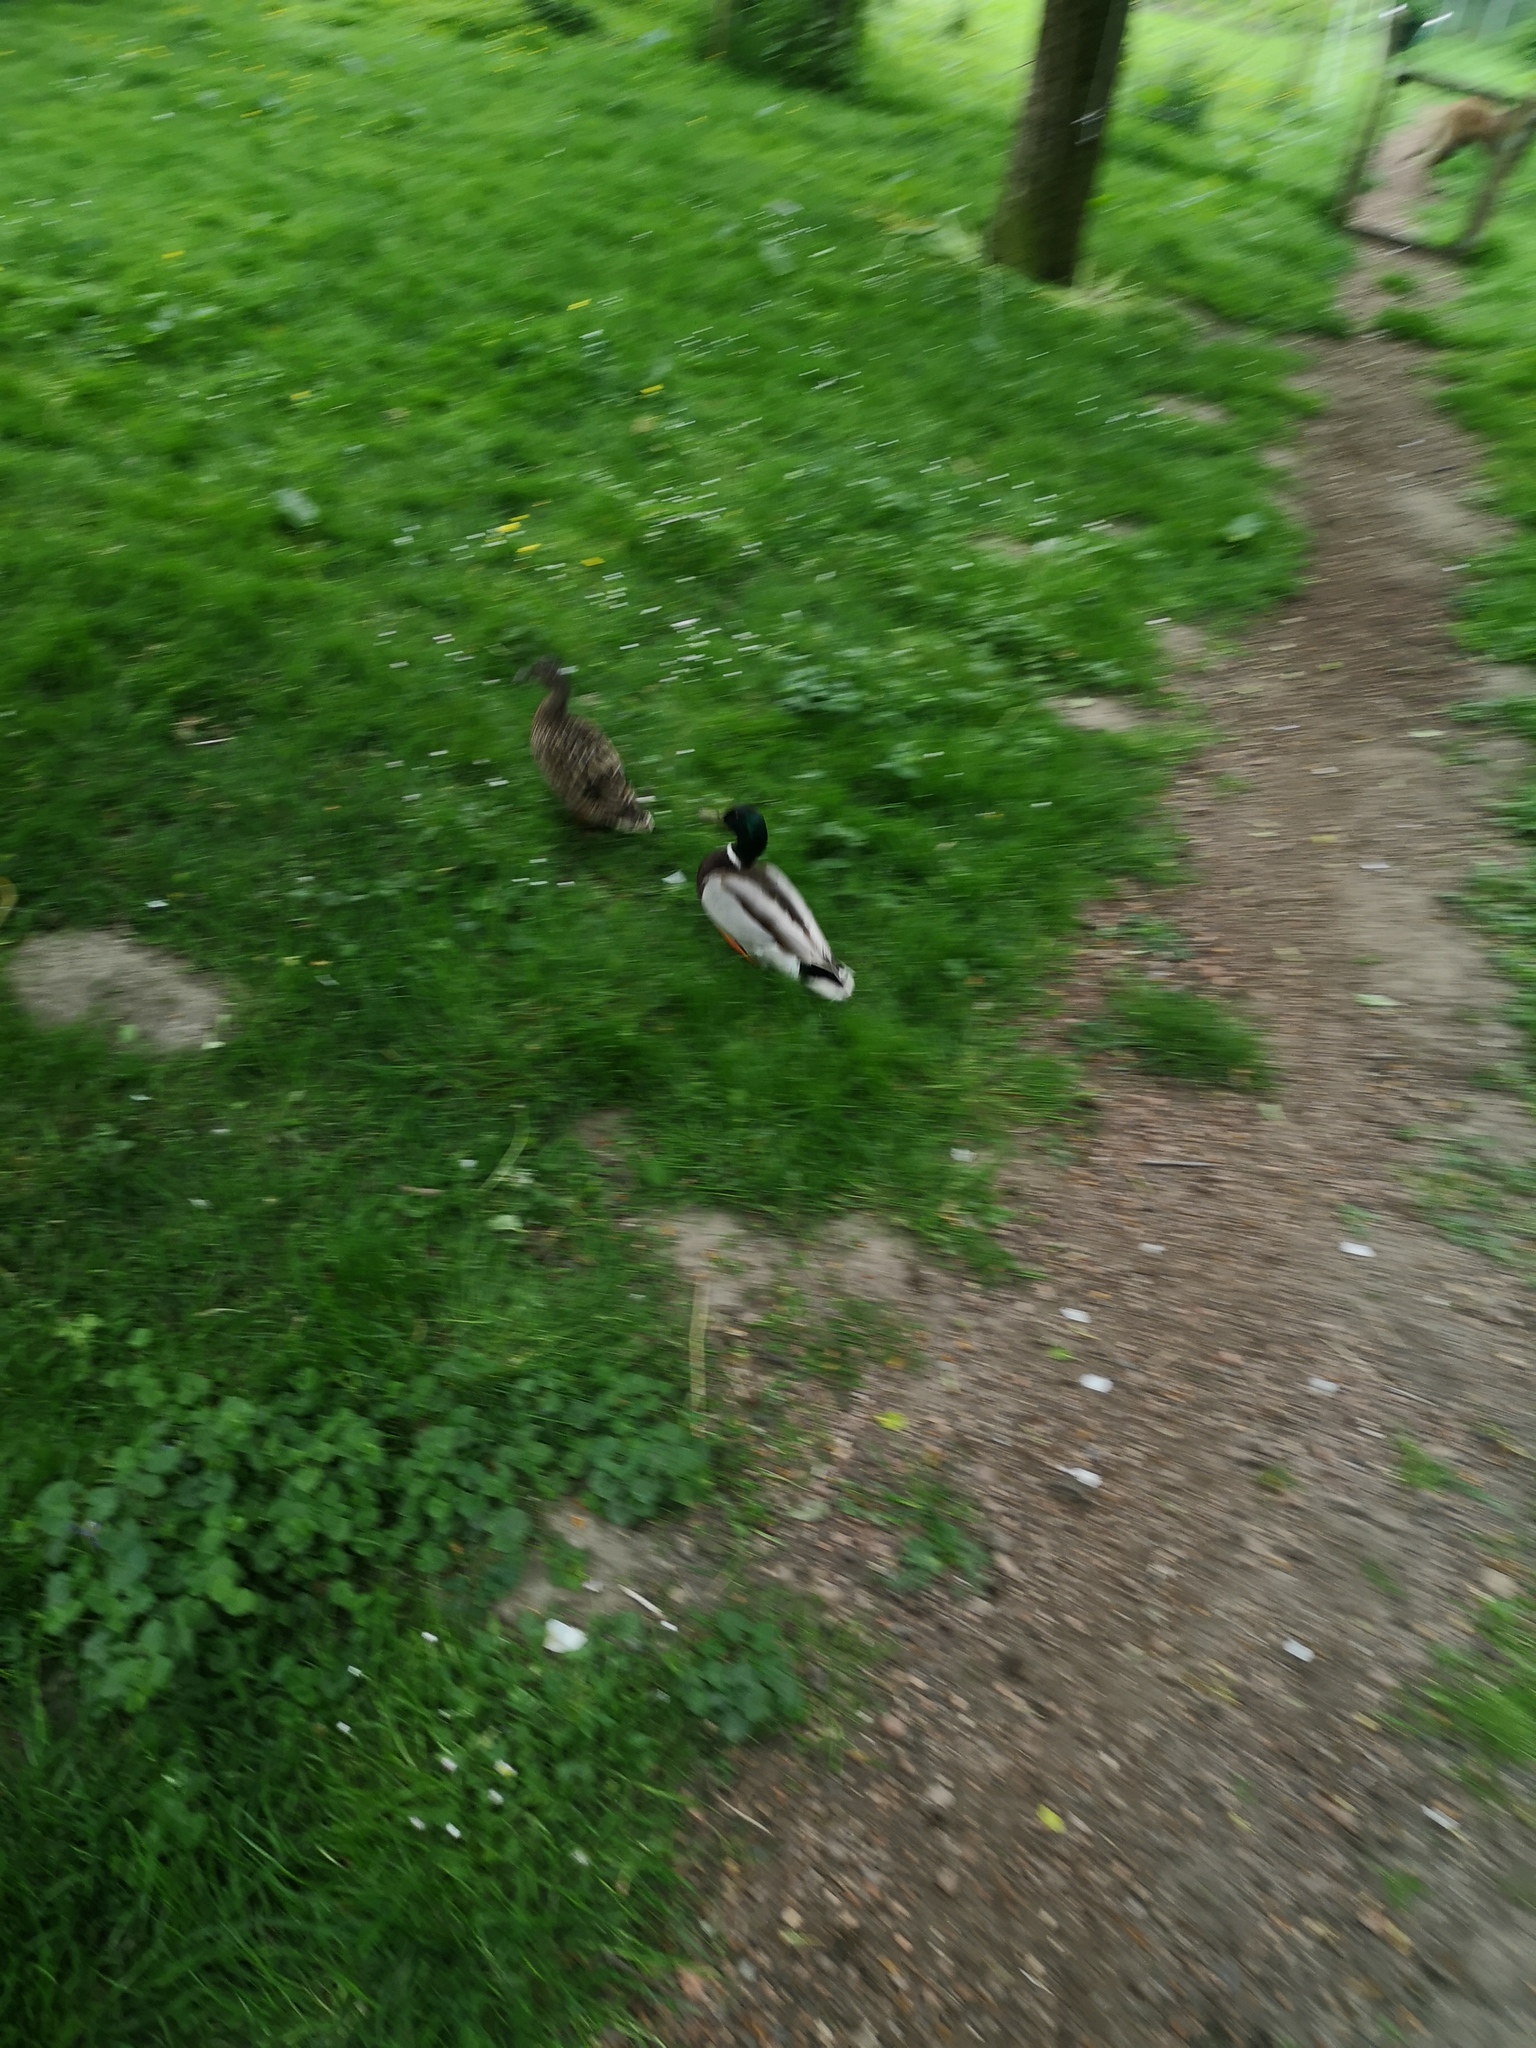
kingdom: Animalia
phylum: Chordata
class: Aves
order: Anseriformes
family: Anatidae
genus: Anas
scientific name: Anas platyrhynchos
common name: Mallard
